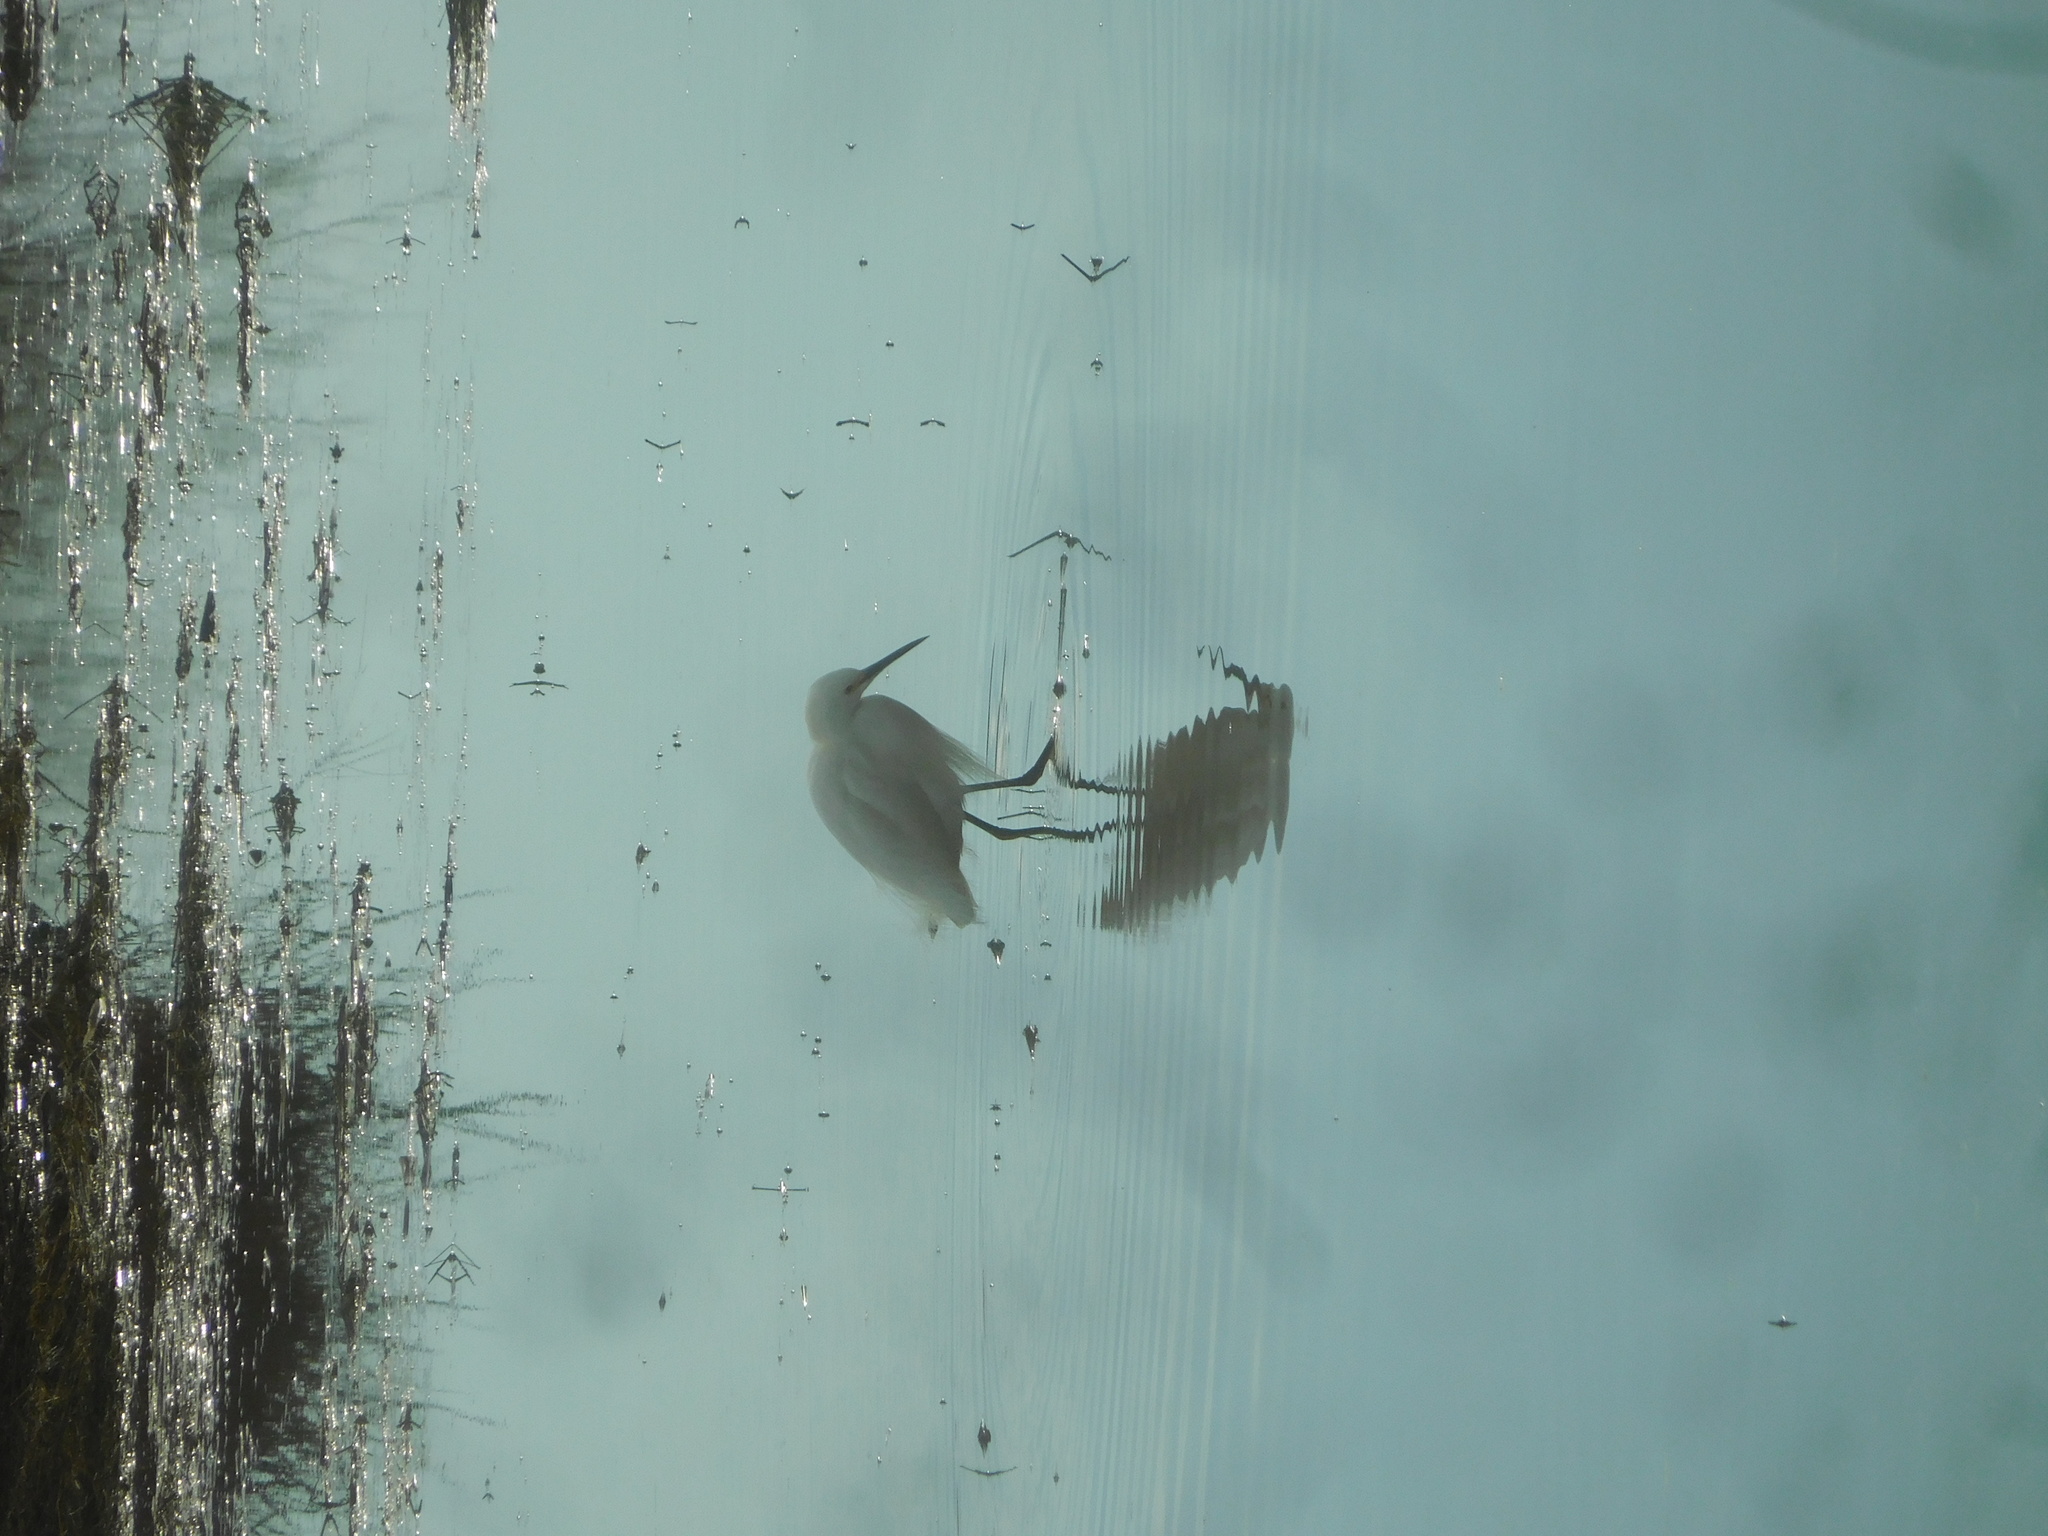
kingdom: Animalia
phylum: Chordata
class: Aves
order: Pelecaniformes
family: Ardeidae
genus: Egretta
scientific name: Egretta thula
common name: Snowy egret
